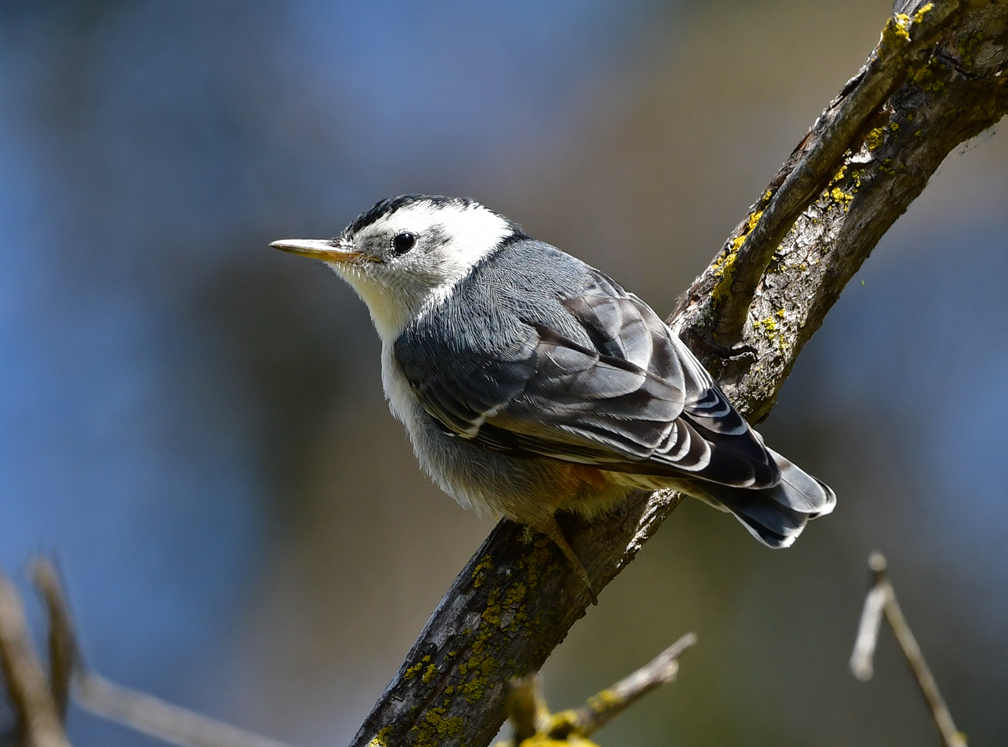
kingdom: Animalia
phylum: Chordata
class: Aves
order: Passeriformes
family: Sittidae
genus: Sitta
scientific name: Sitta carolinensis
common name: White-breasted nuthatch
